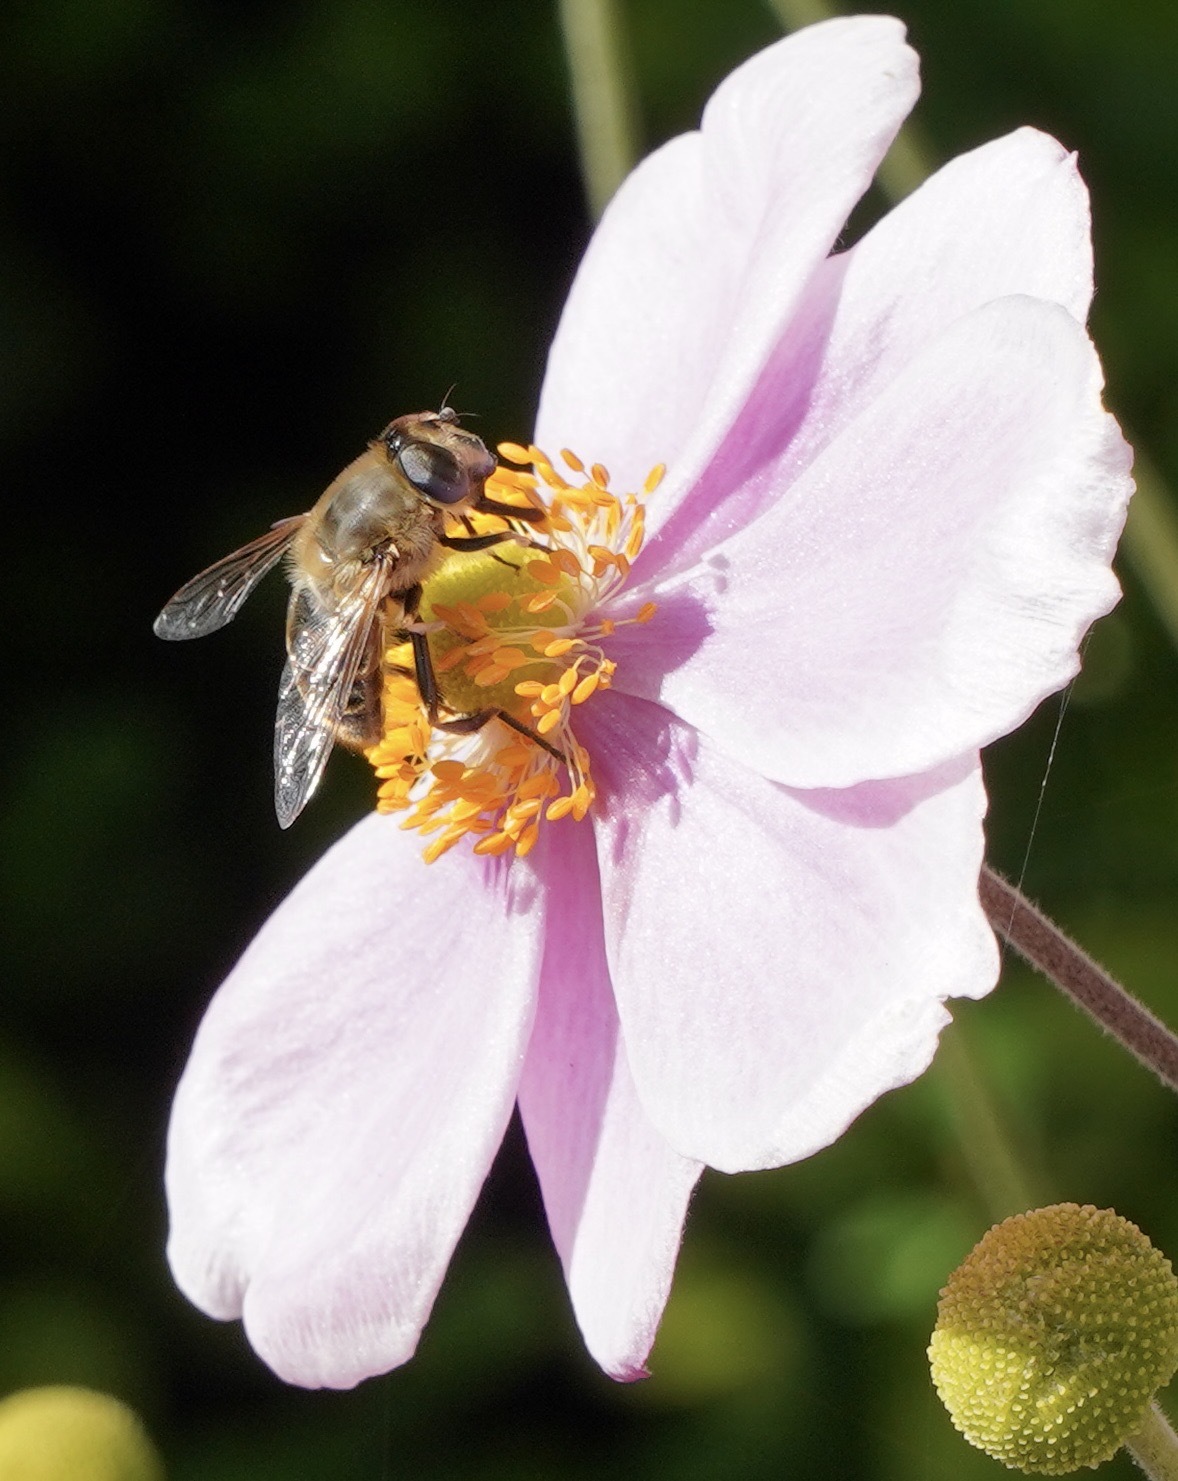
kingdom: Animalia
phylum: Arthropoda
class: Insecta
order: Diptera
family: Syrphidae
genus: Eristalis
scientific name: Eristalis tenax
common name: Drone fly
